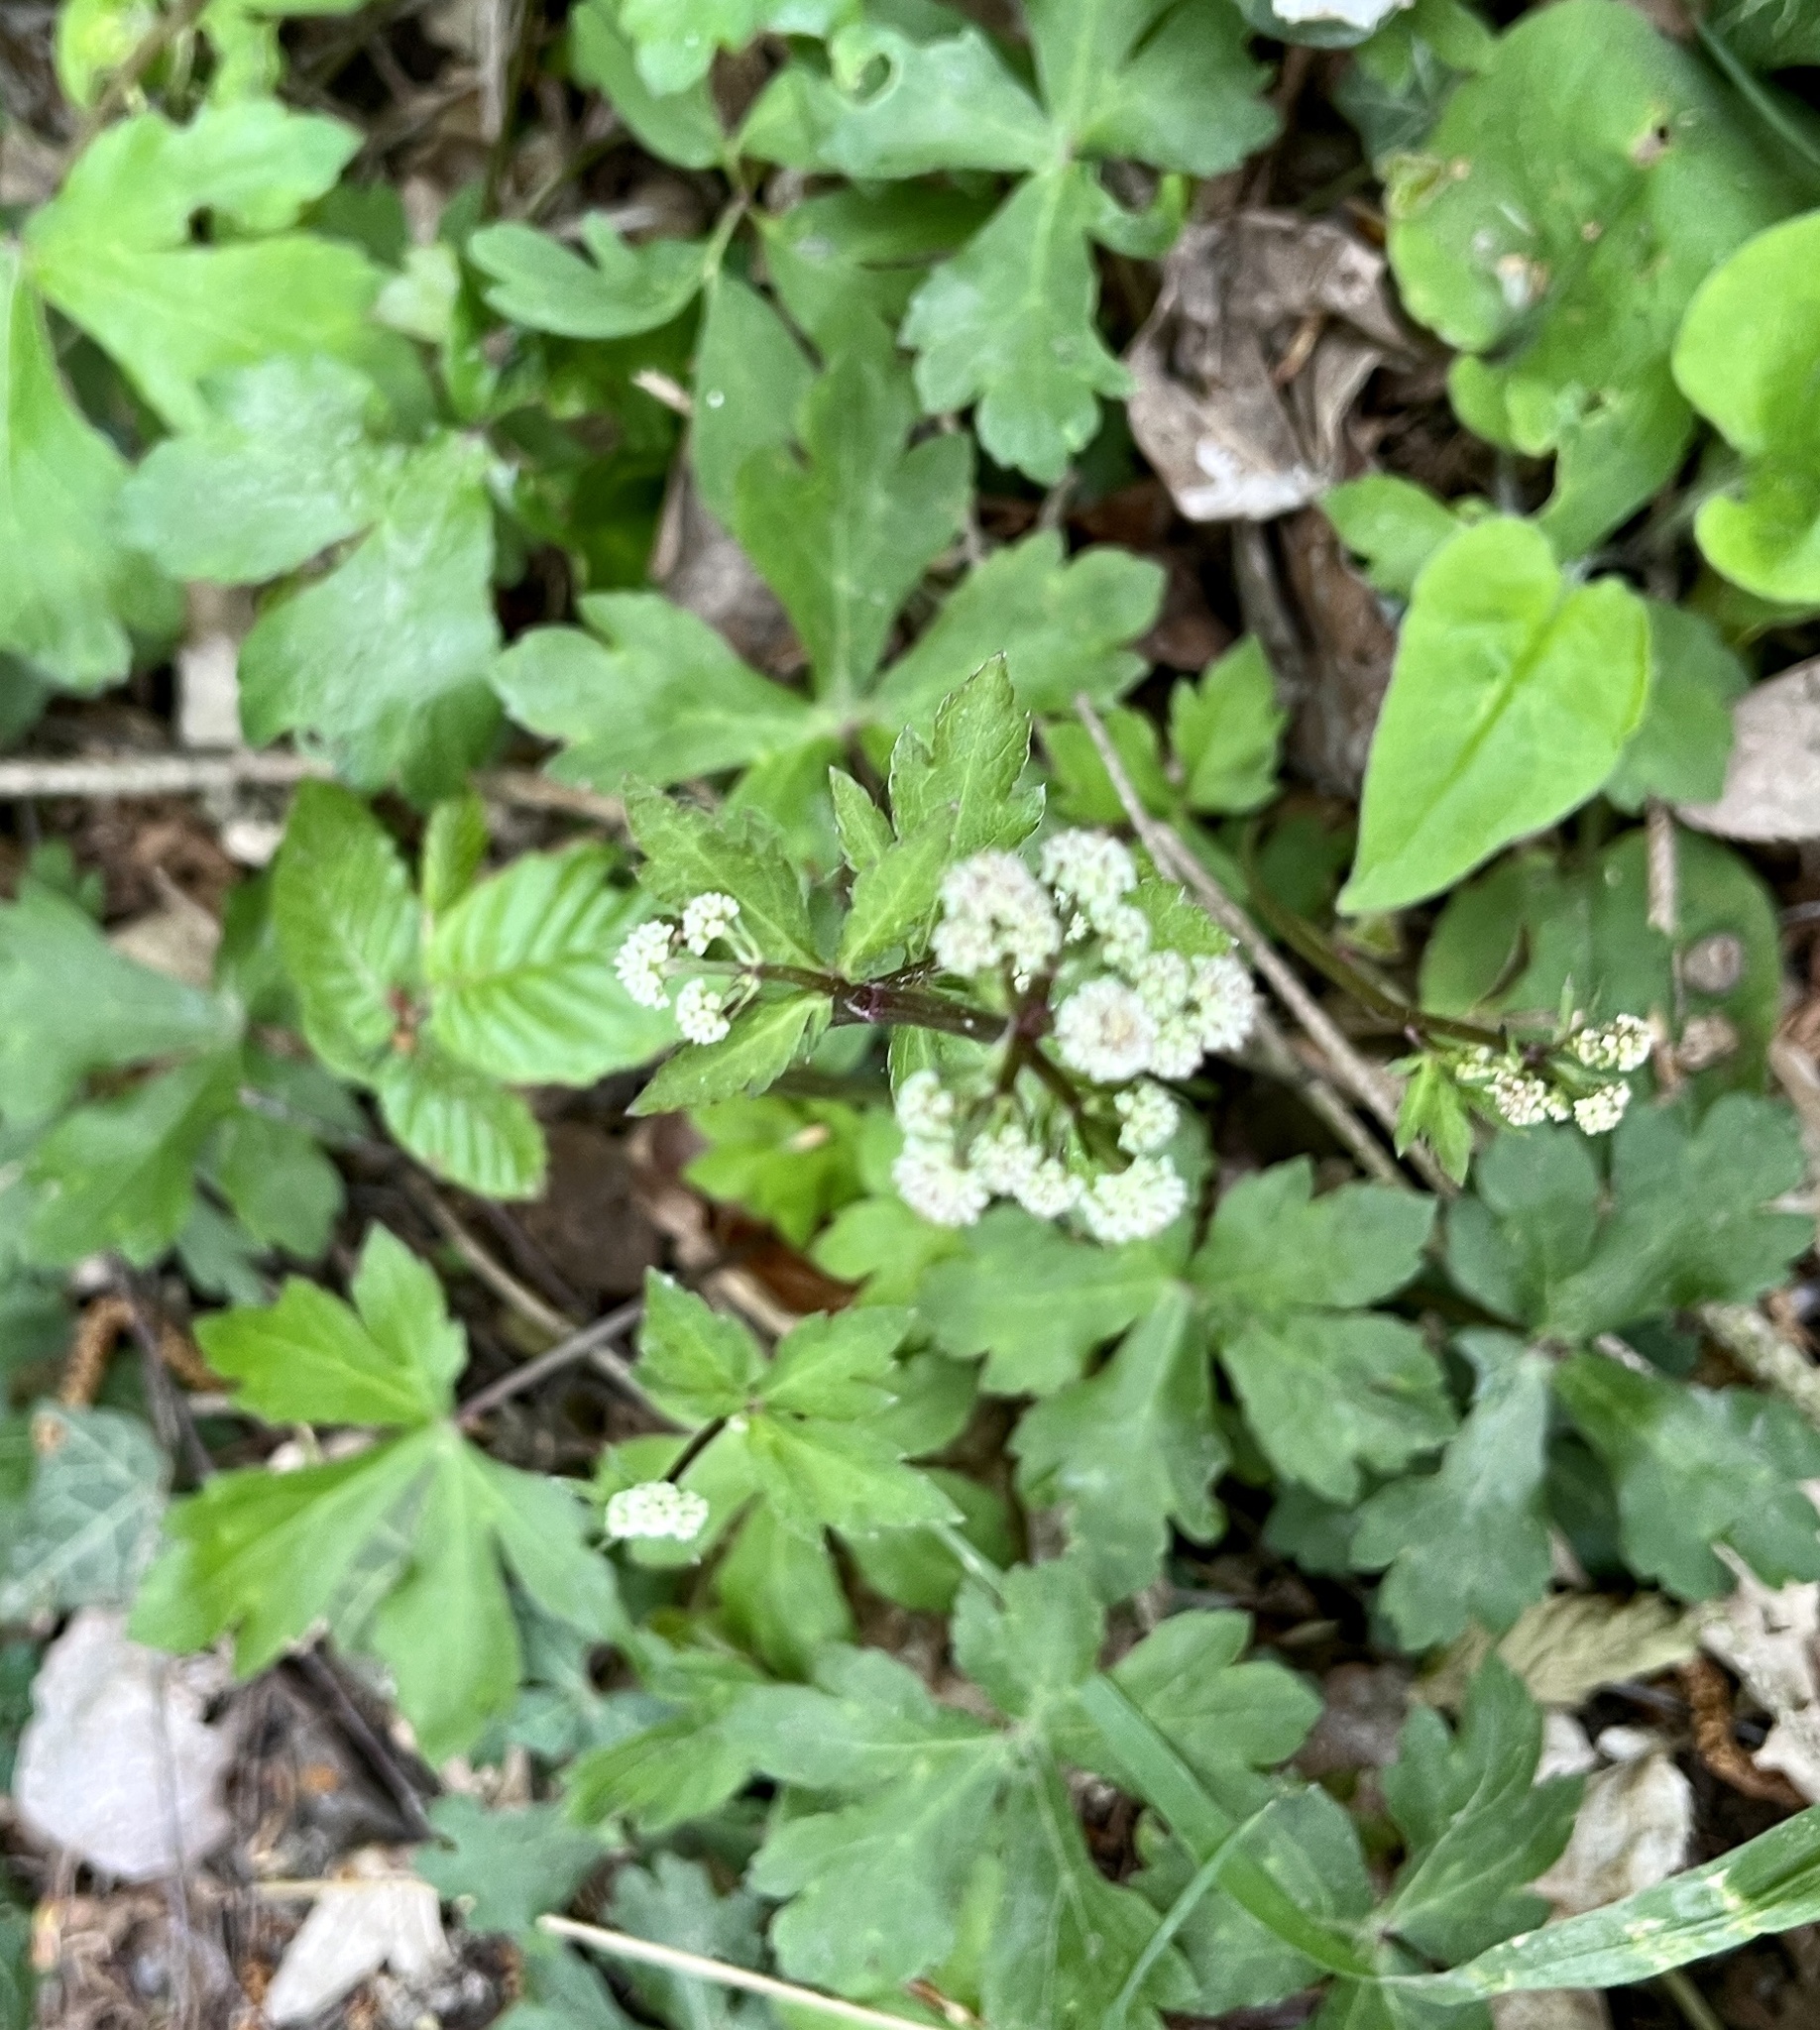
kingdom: Plantae
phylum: Tracheophyta
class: Magnoliopsida
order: Apiales
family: Apiaceae
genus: Sanicula
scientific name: Sanicula europaea
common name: Sanicle
